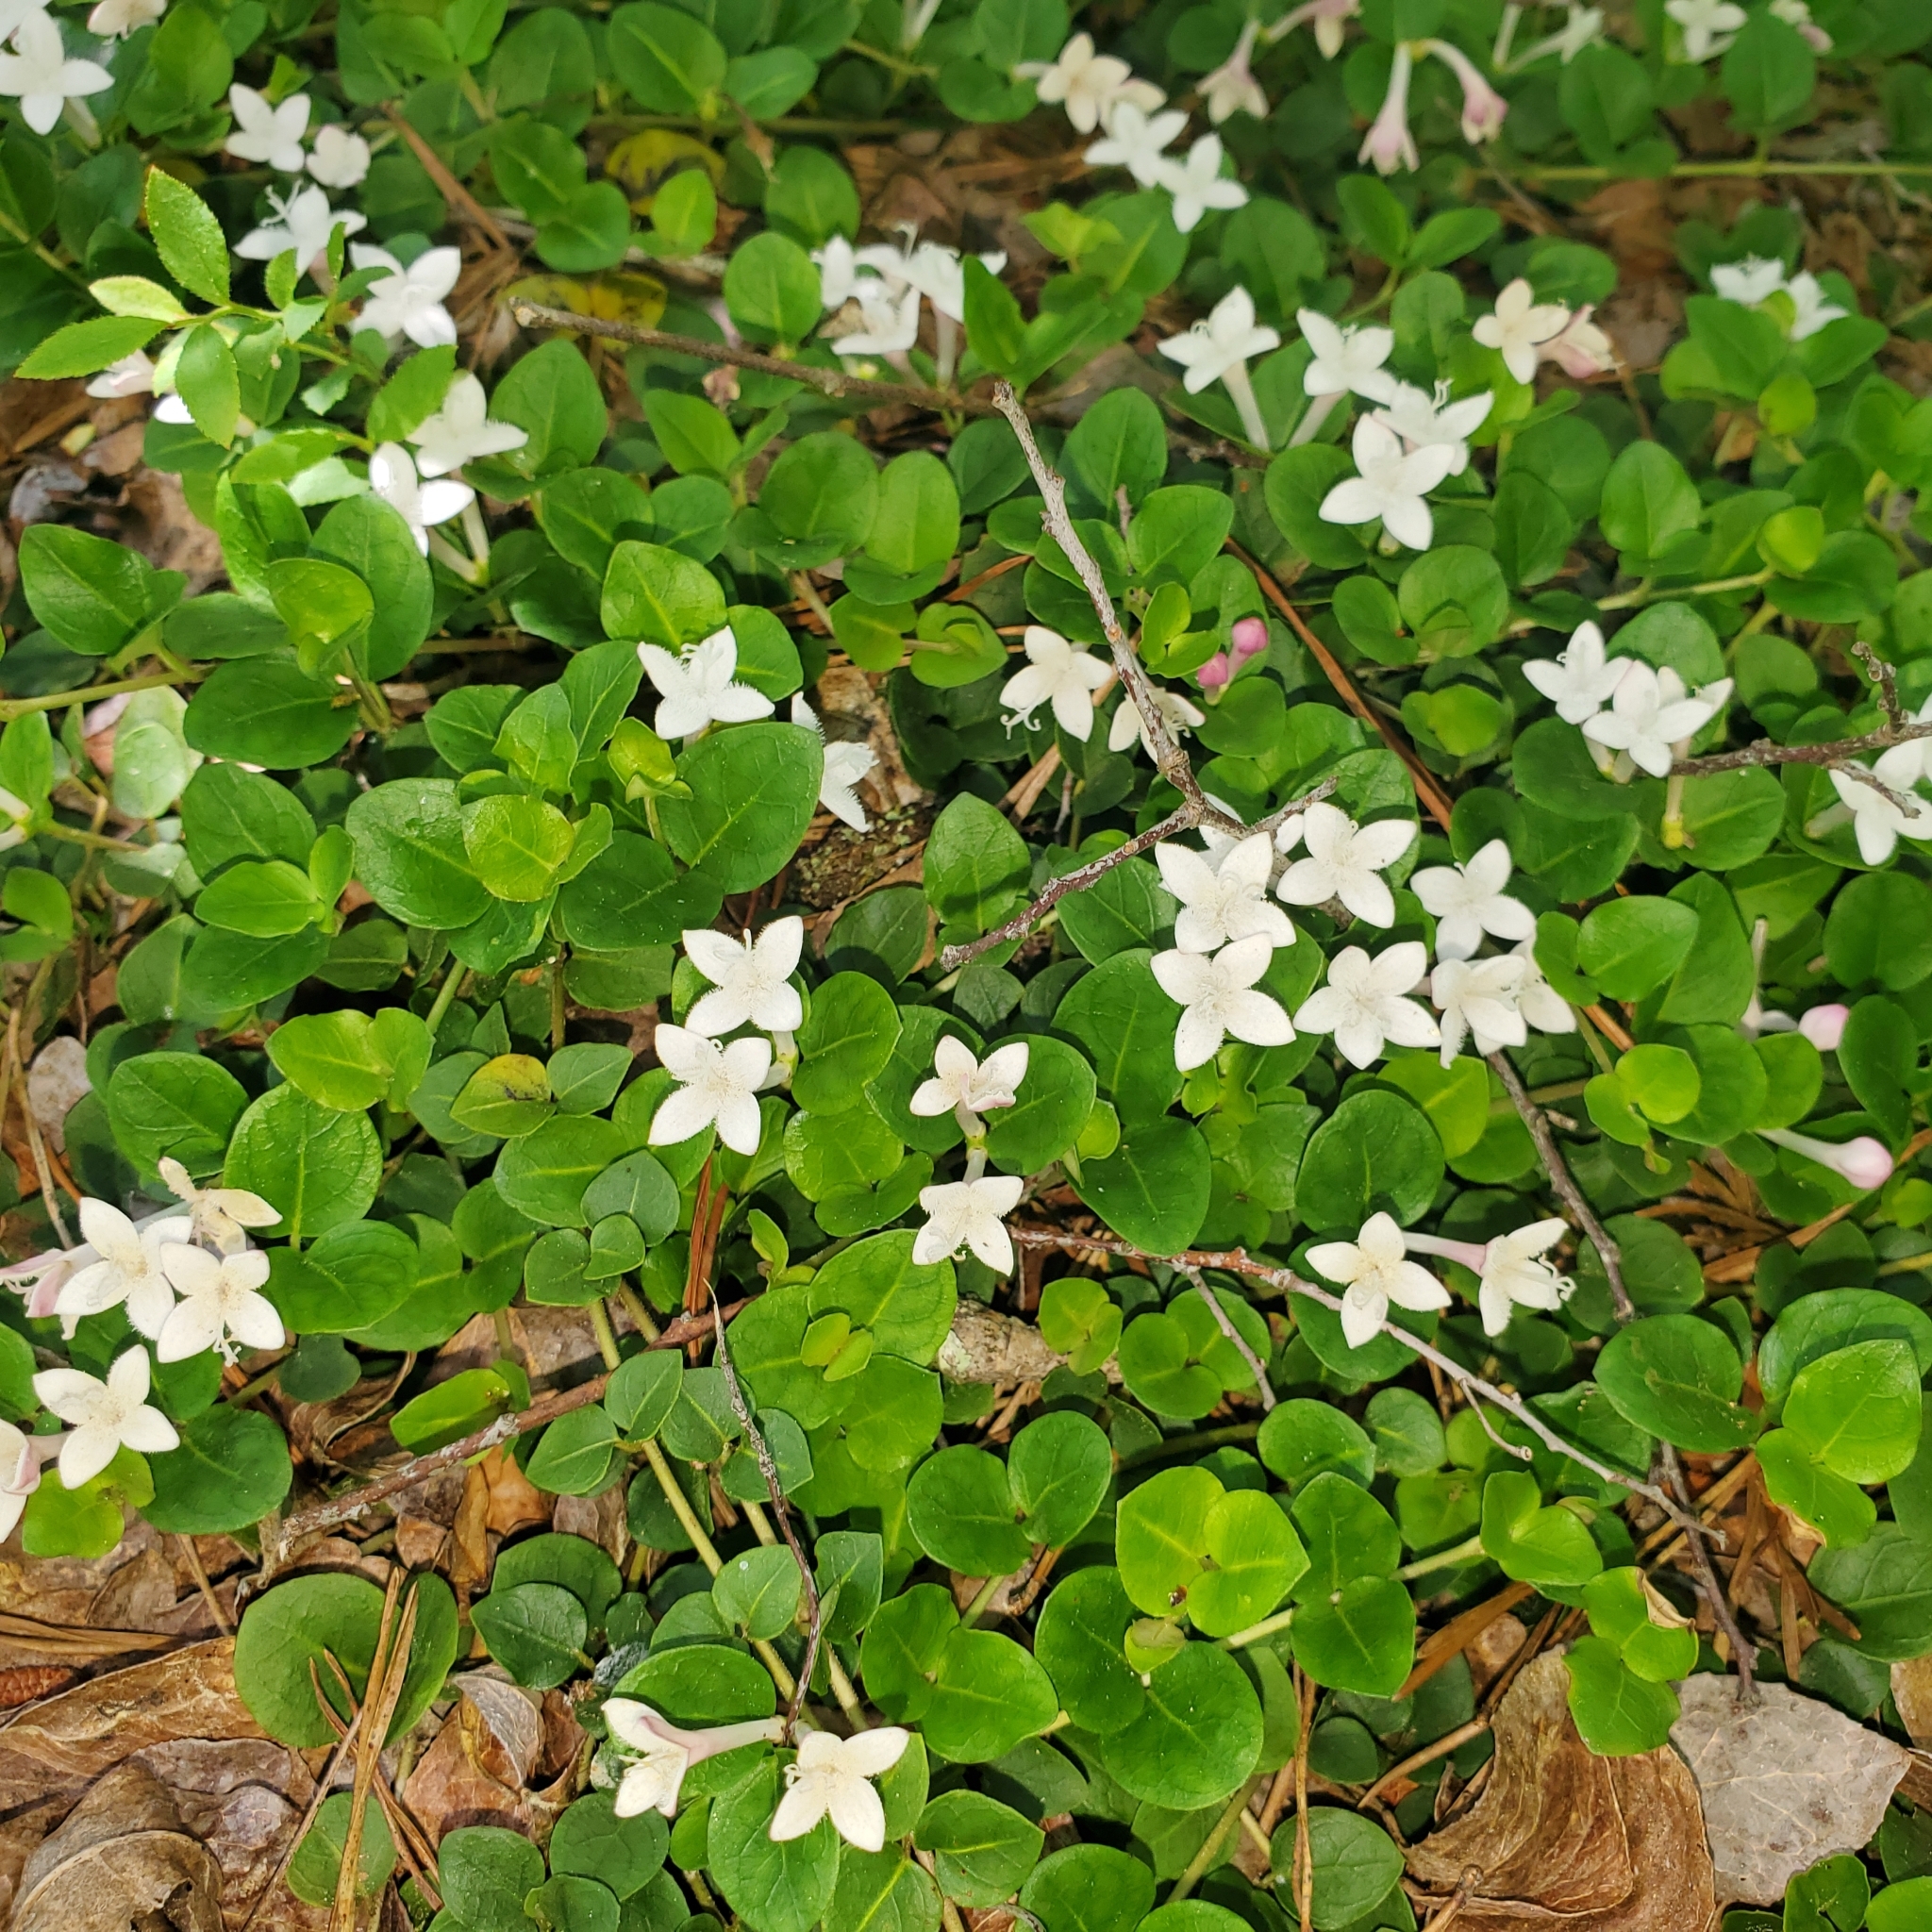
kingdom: Plantae
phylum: Tracheophyta
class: Magnoliopsida
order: Gentianales
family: Rubiaceae
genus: Mitchella
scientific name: Mitchella repens
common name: Partridge-berry
